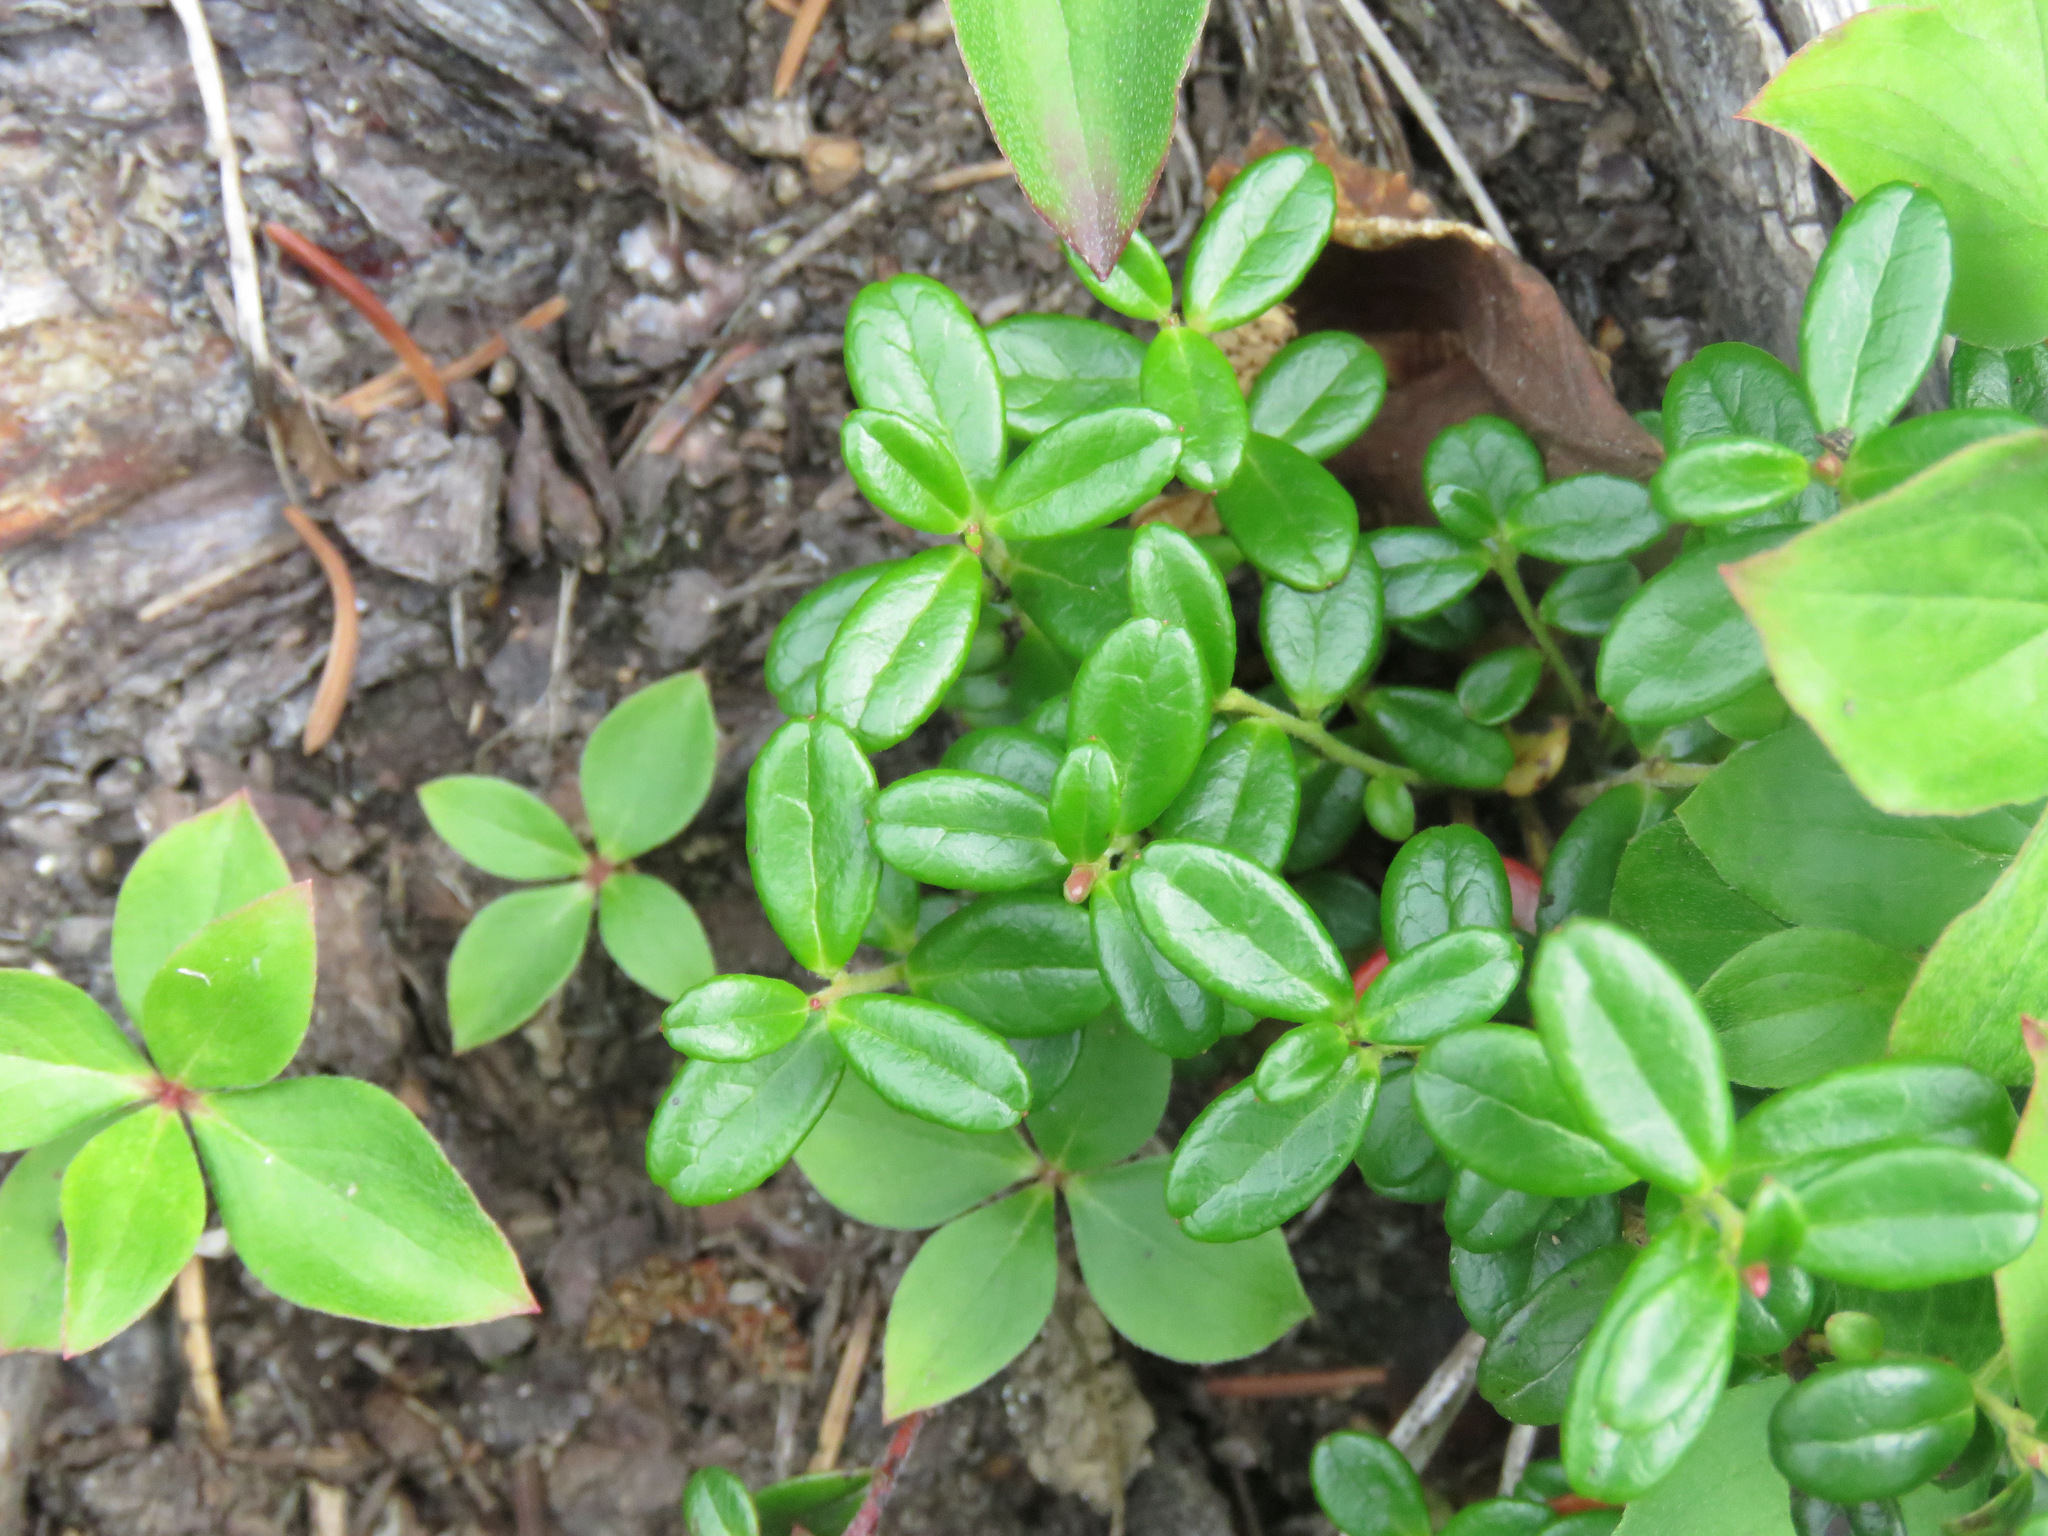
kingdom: Plantae
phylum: Tracheophyta
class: Magnoliopsida
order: Ericales
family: Ericaceae
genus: Vaccinium
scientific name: Vaccinium vitis-idaea
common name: Cowberry
